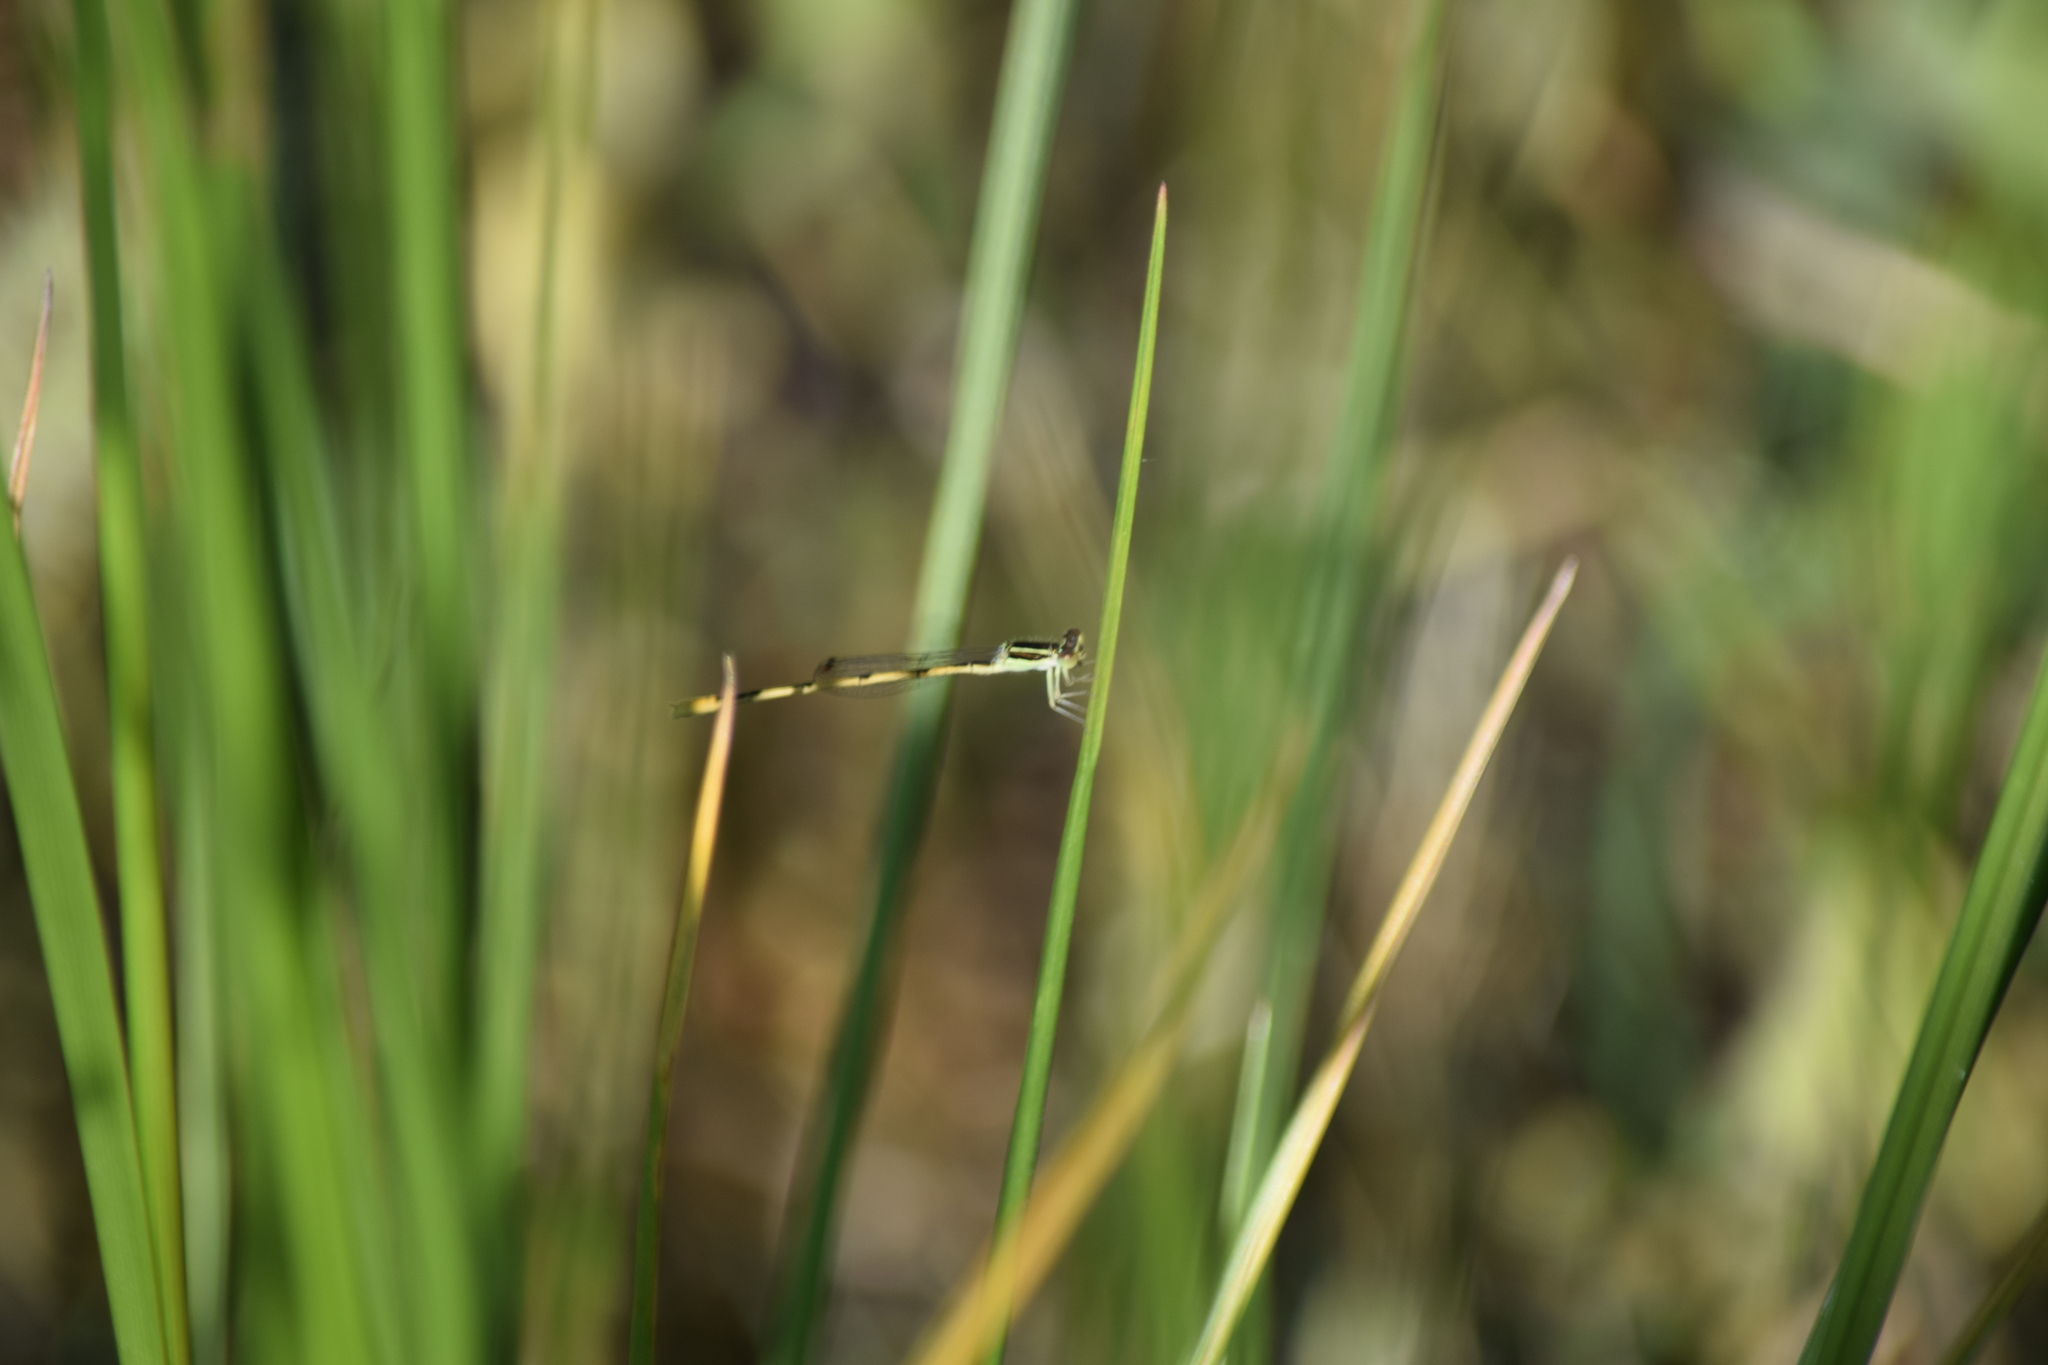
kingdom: Animalia
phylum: Arthropoda
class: Insecta
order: Odonata
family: Coenagrionidae
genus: Ischnura
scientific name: Ischnura hastata
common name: Citrine forktail
